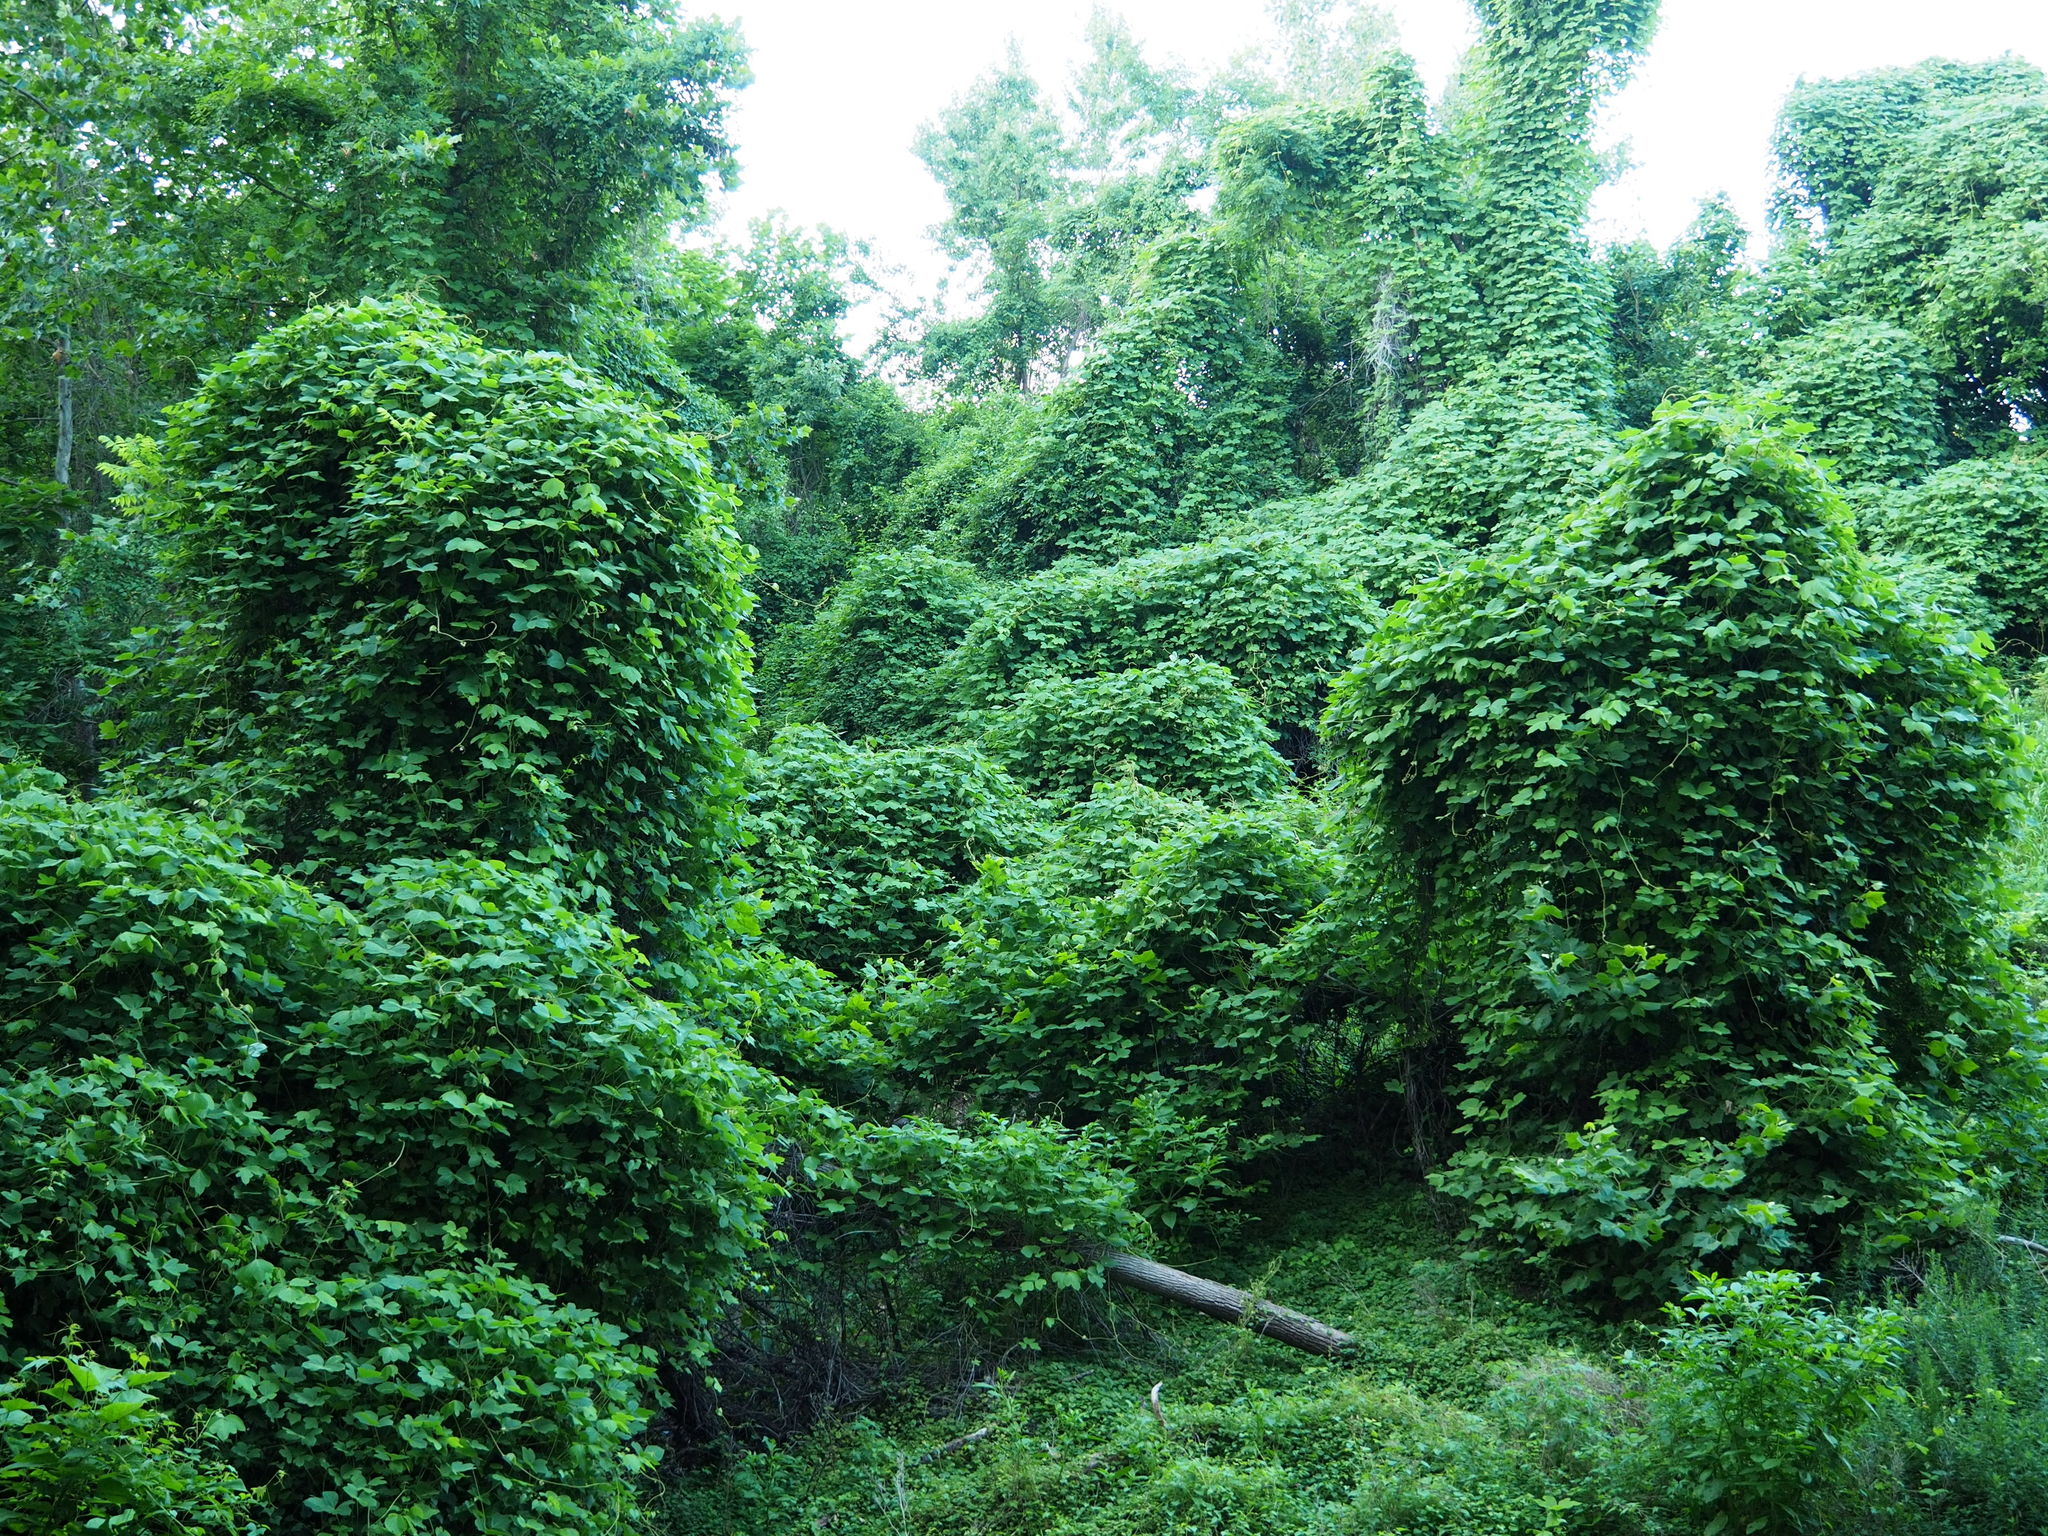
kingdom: Plantae
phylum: Tracheophyta
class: Magnoliopsida
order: Fabales
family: Fabaceae
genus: Pueraria
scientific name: Pueraria montana
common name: Kudzu
